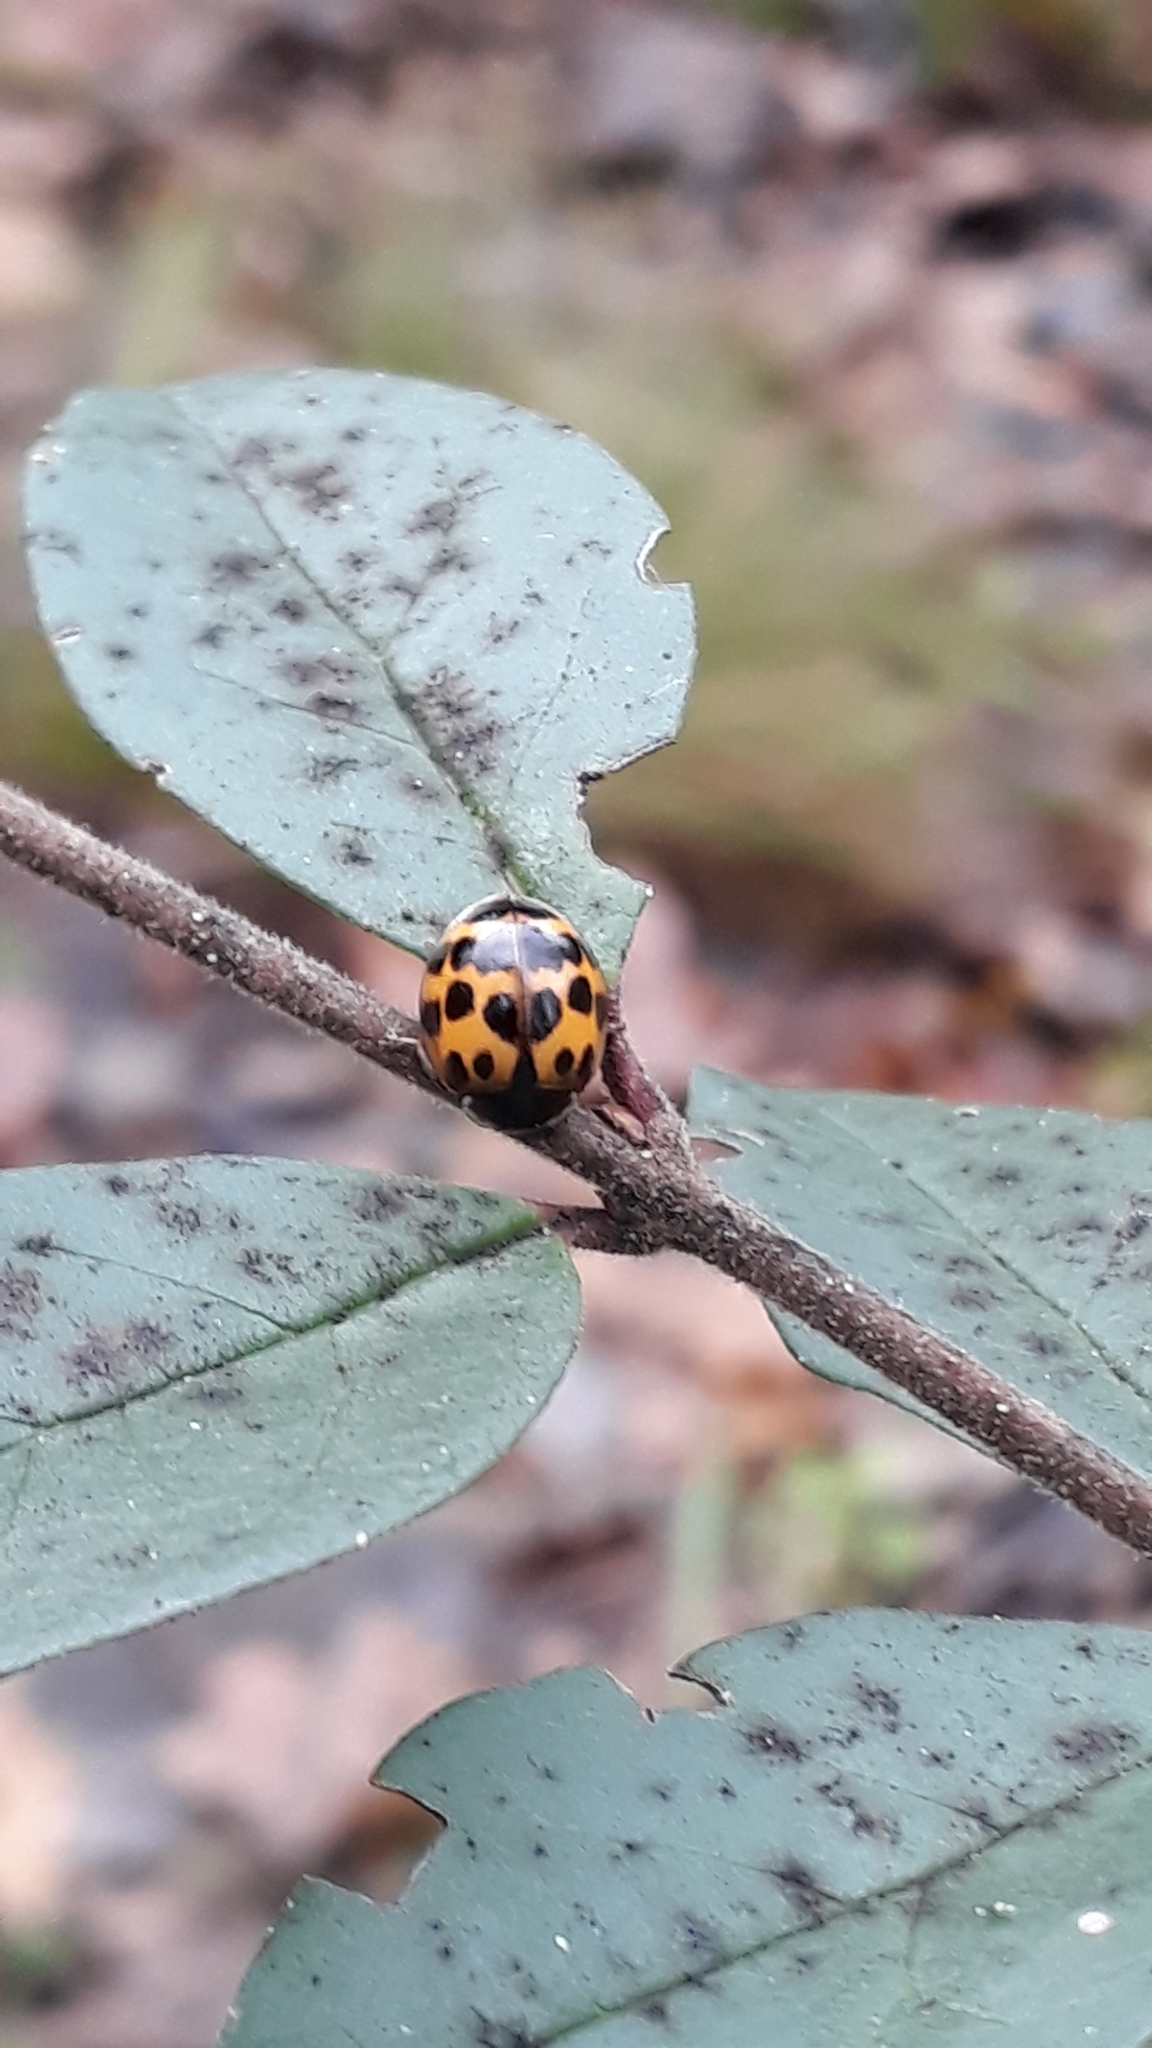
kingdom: Animalia
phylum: Arthropoda
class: Insecta
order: Coleoptera
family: Coccinellidae
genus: Harmonia
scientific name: Harmonia axyridis
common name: Harlequin ladybird
